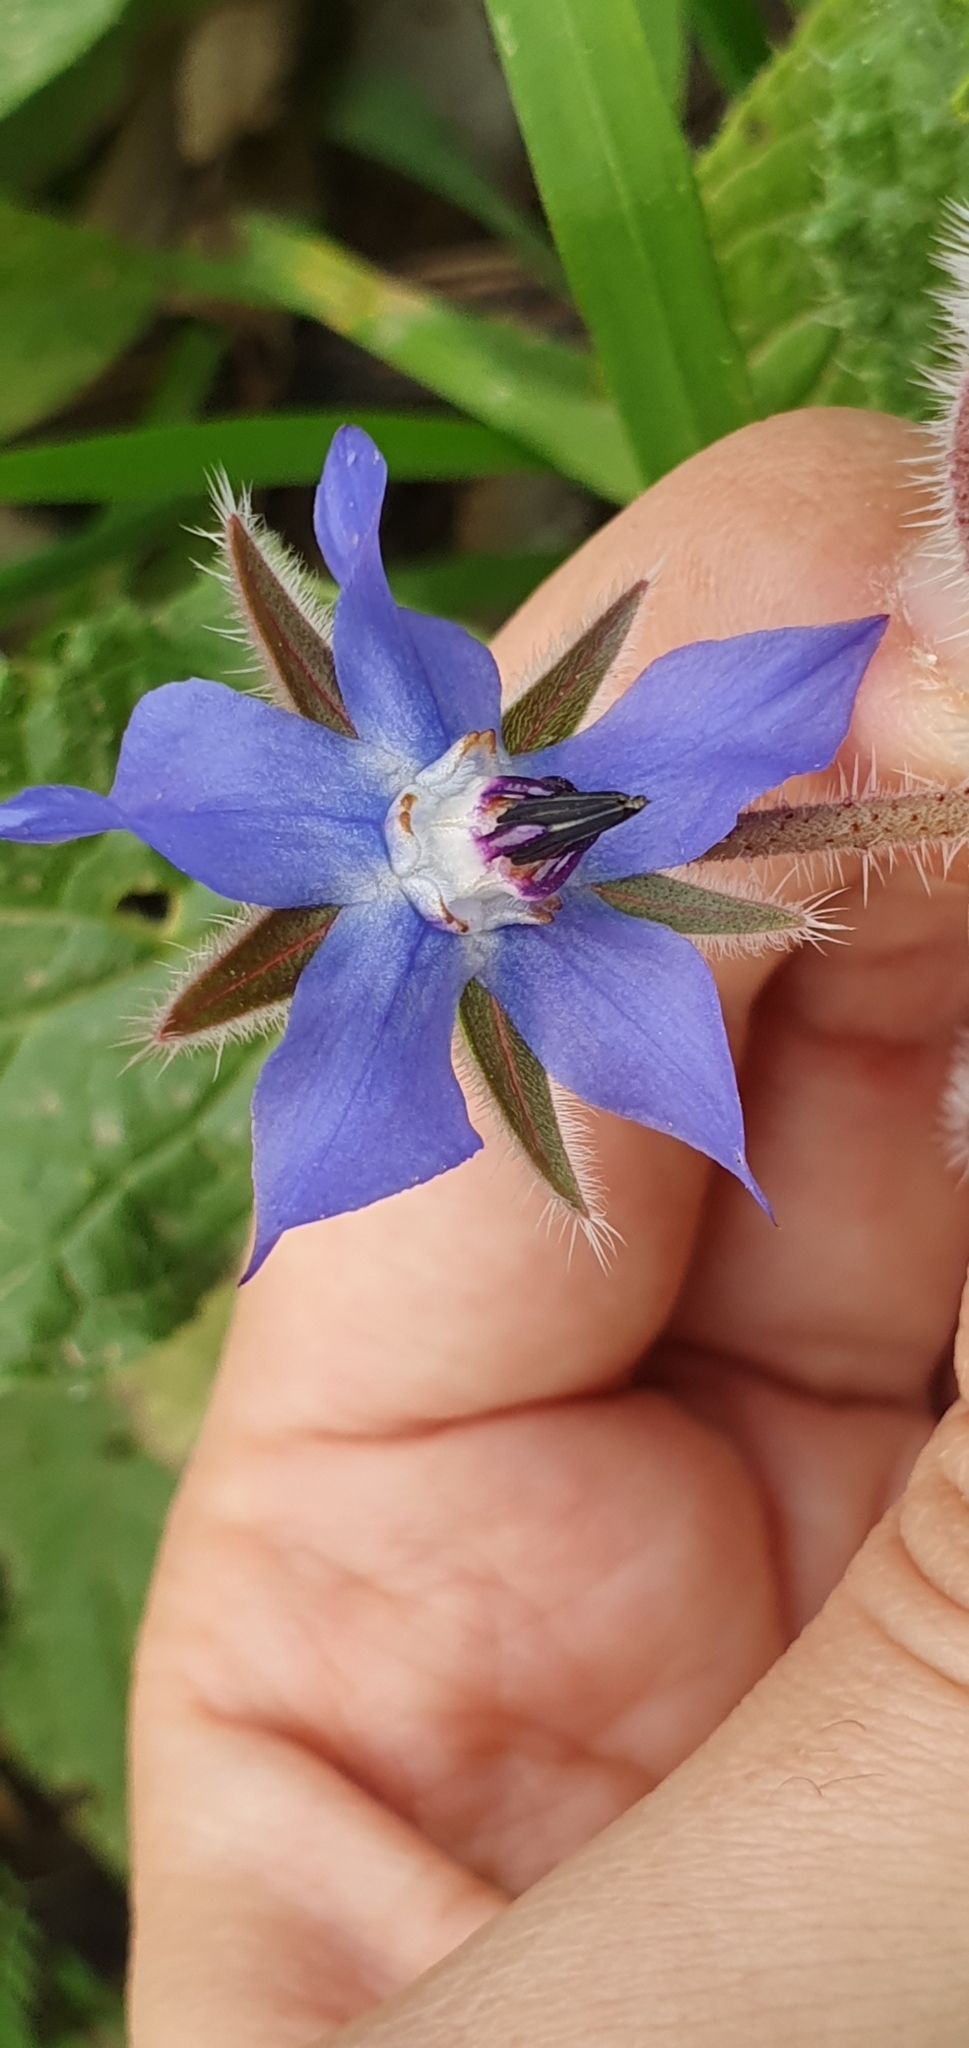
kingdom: Plantae
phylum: Tracheophyta
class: Magnoliopsida
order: Boraginales
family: Boraginaceae
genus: Borago
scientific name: Borago officinalis
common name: Borage
